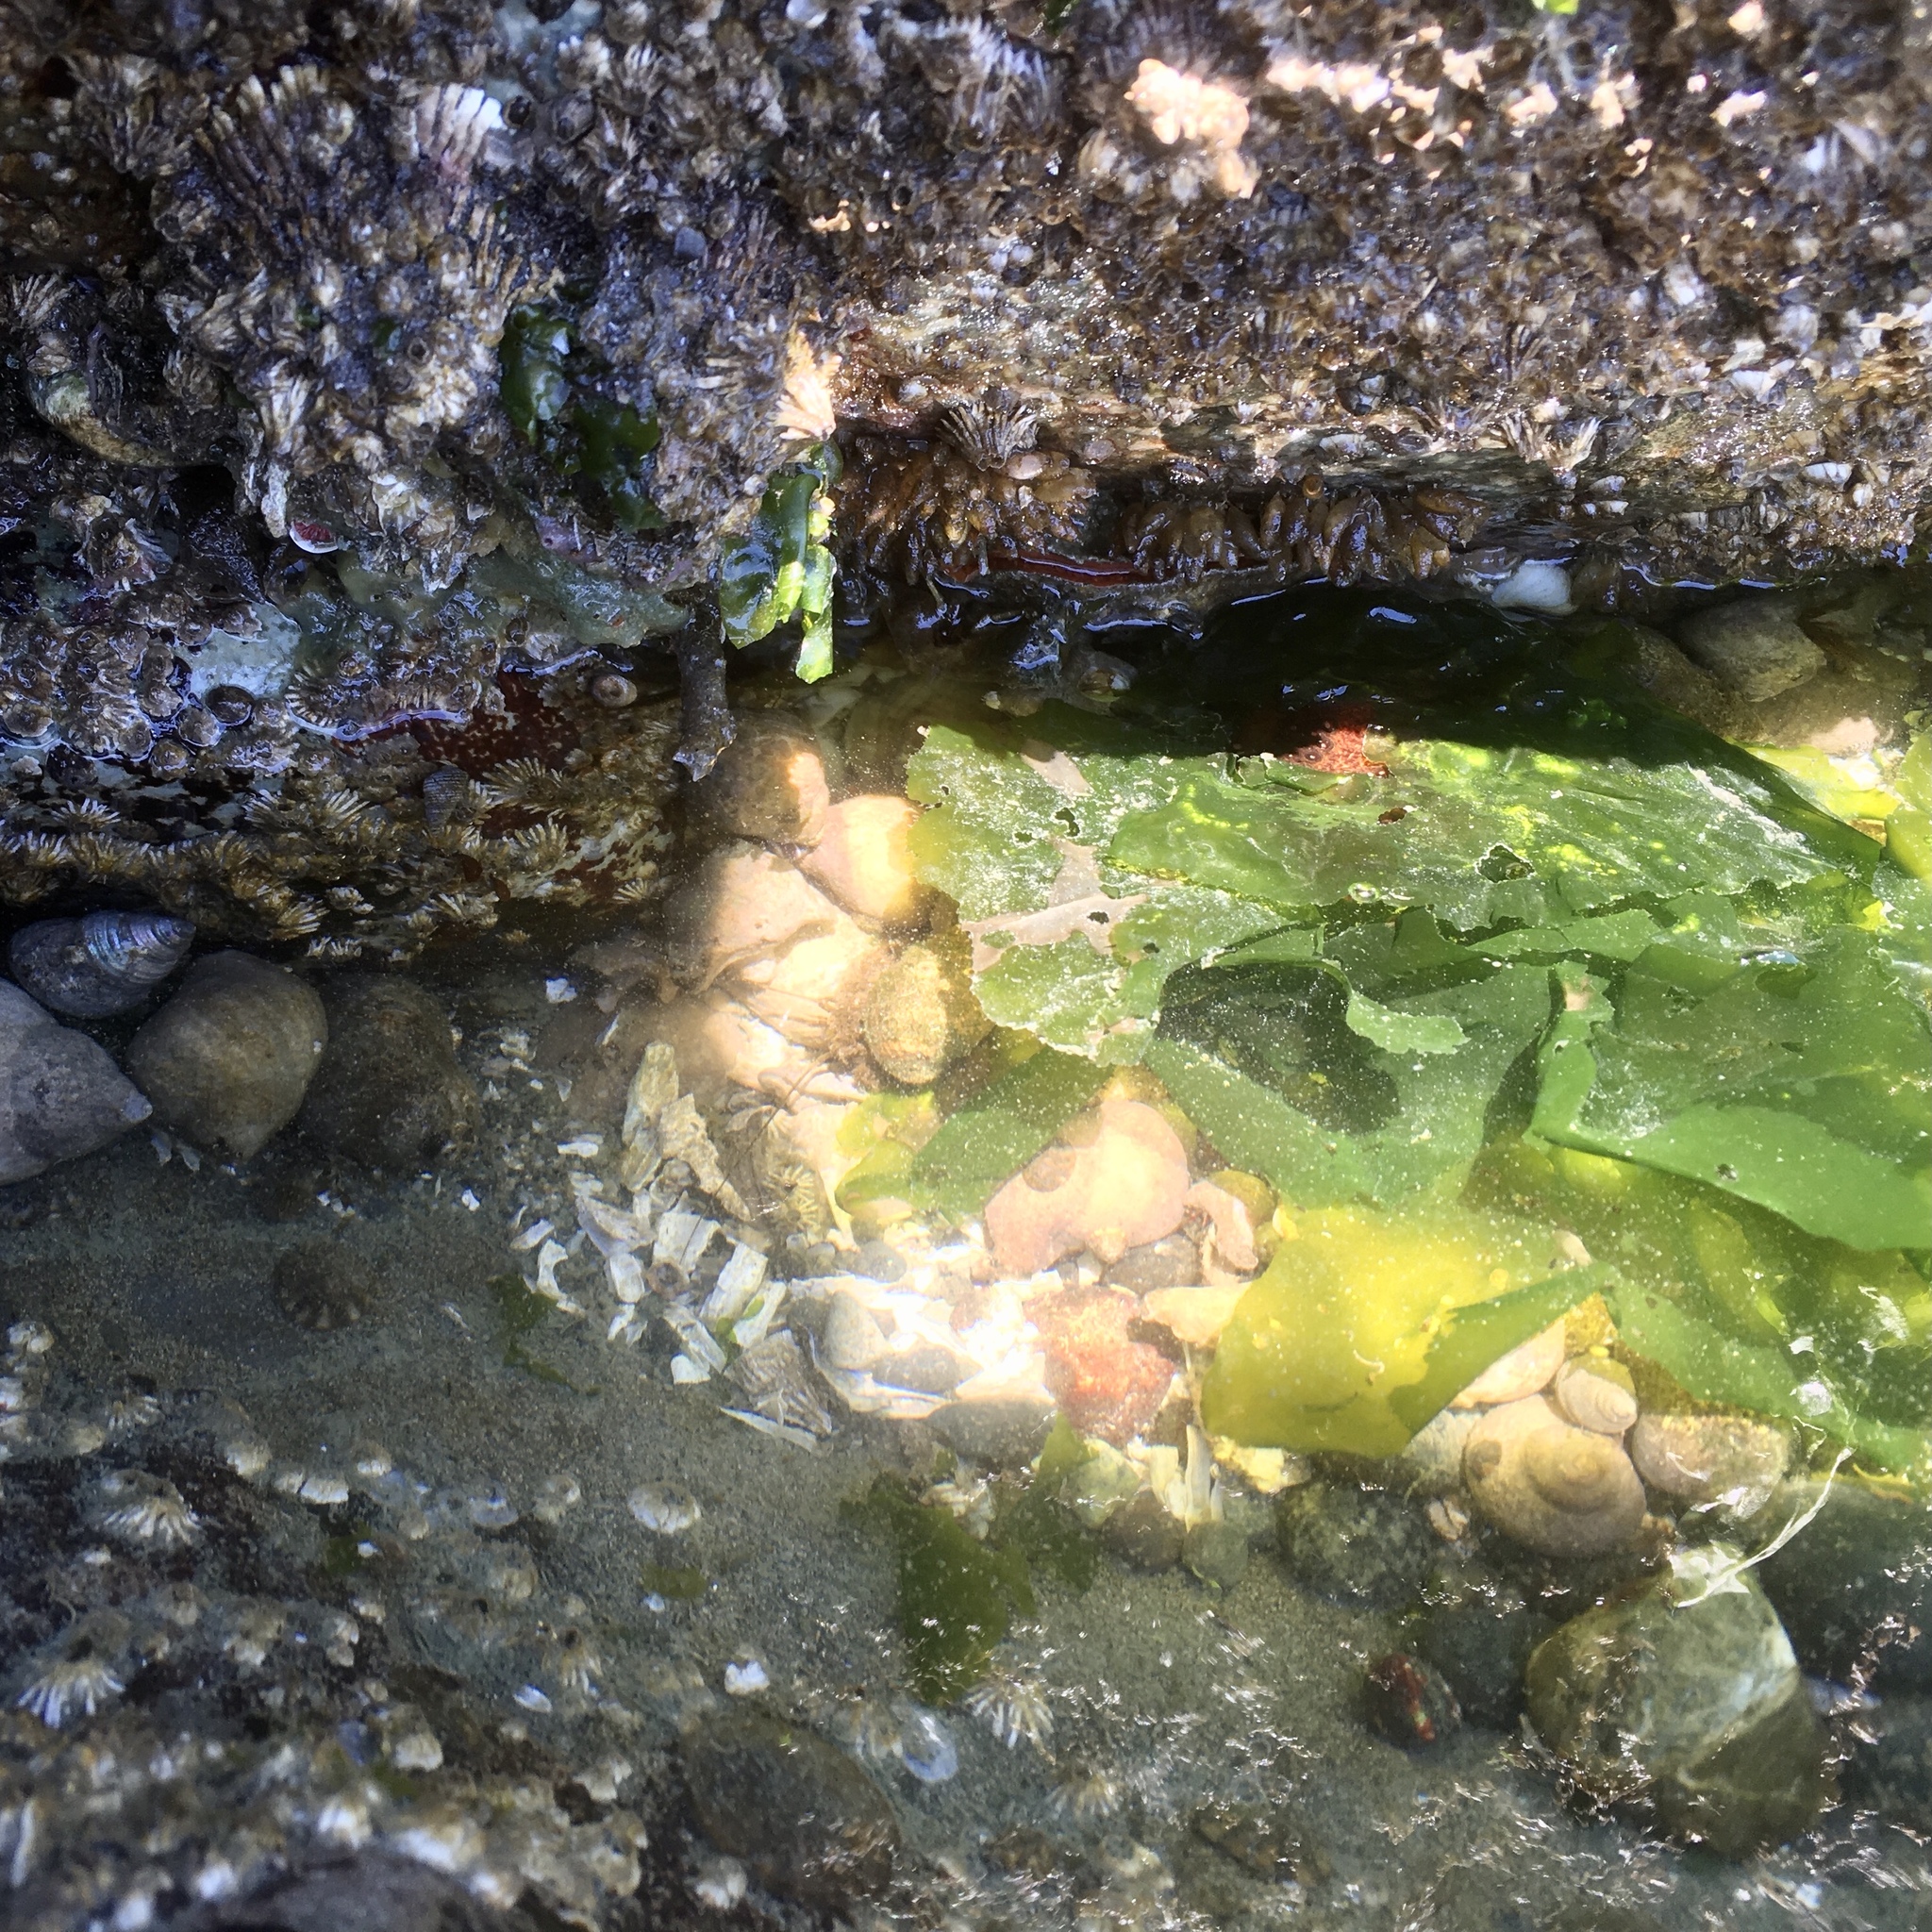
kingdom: Animalia
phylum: Arthropoda
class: Malacostraca
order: Decapoda
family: Paguridae
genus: Pagurus
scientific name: Pagurus granosimanus
